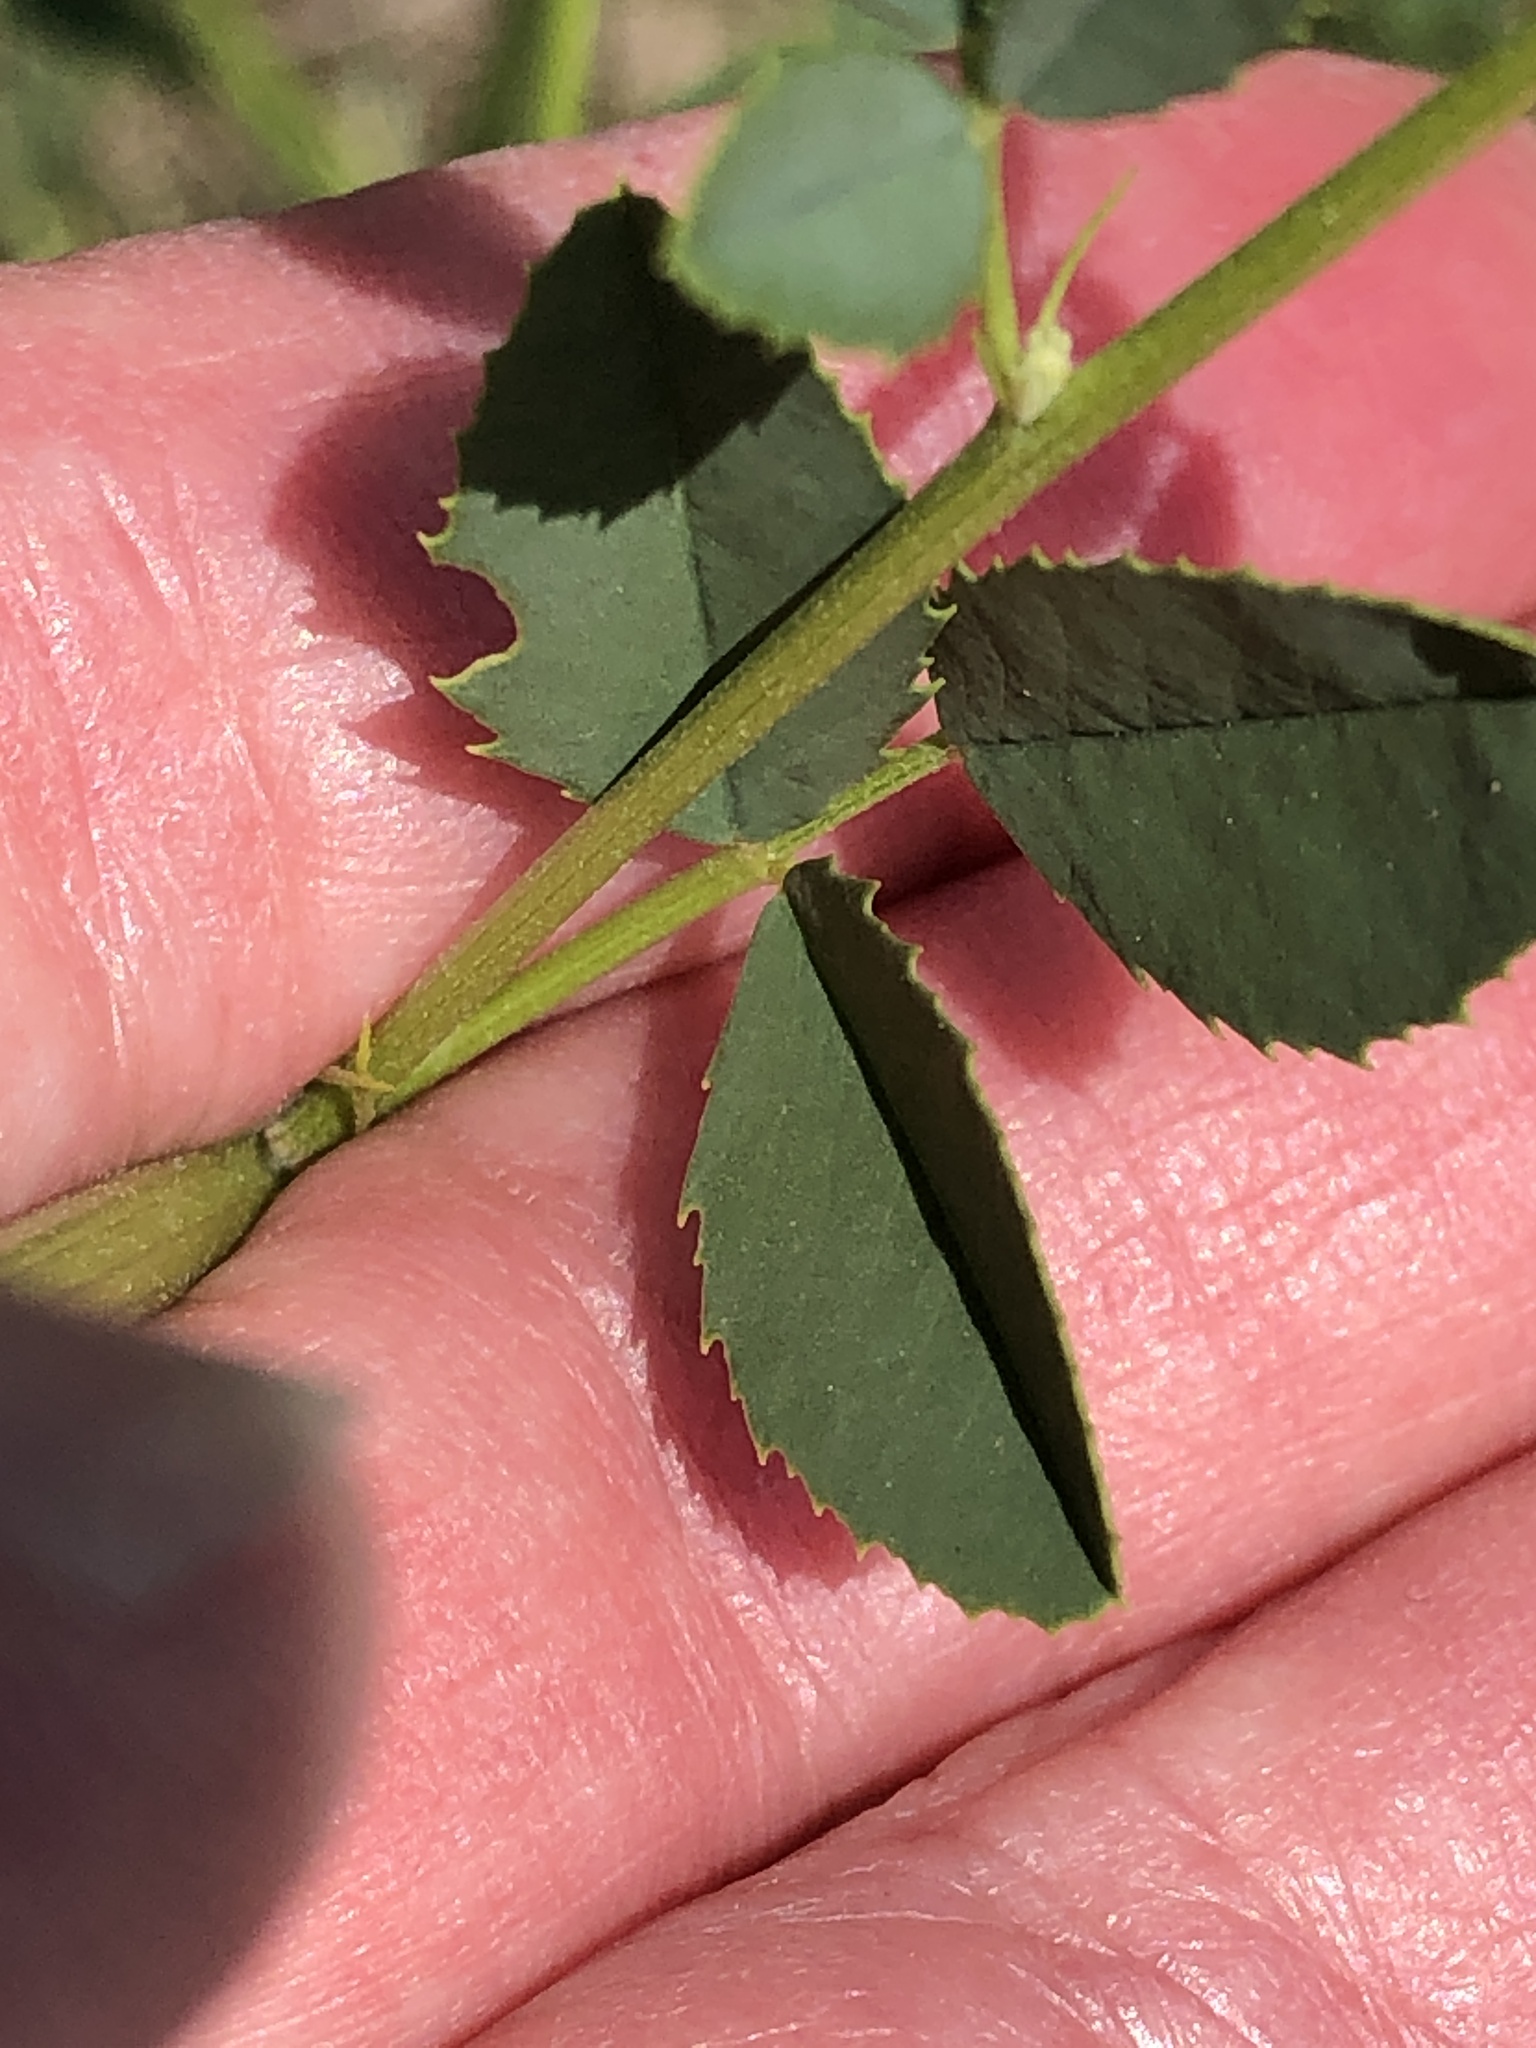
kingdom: Plantae
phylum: Tracheophyta
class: Magnoliopsida
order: Fabales
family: Fabaceae
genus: Melilotus
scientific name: Melilotus albus
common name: White melilot
